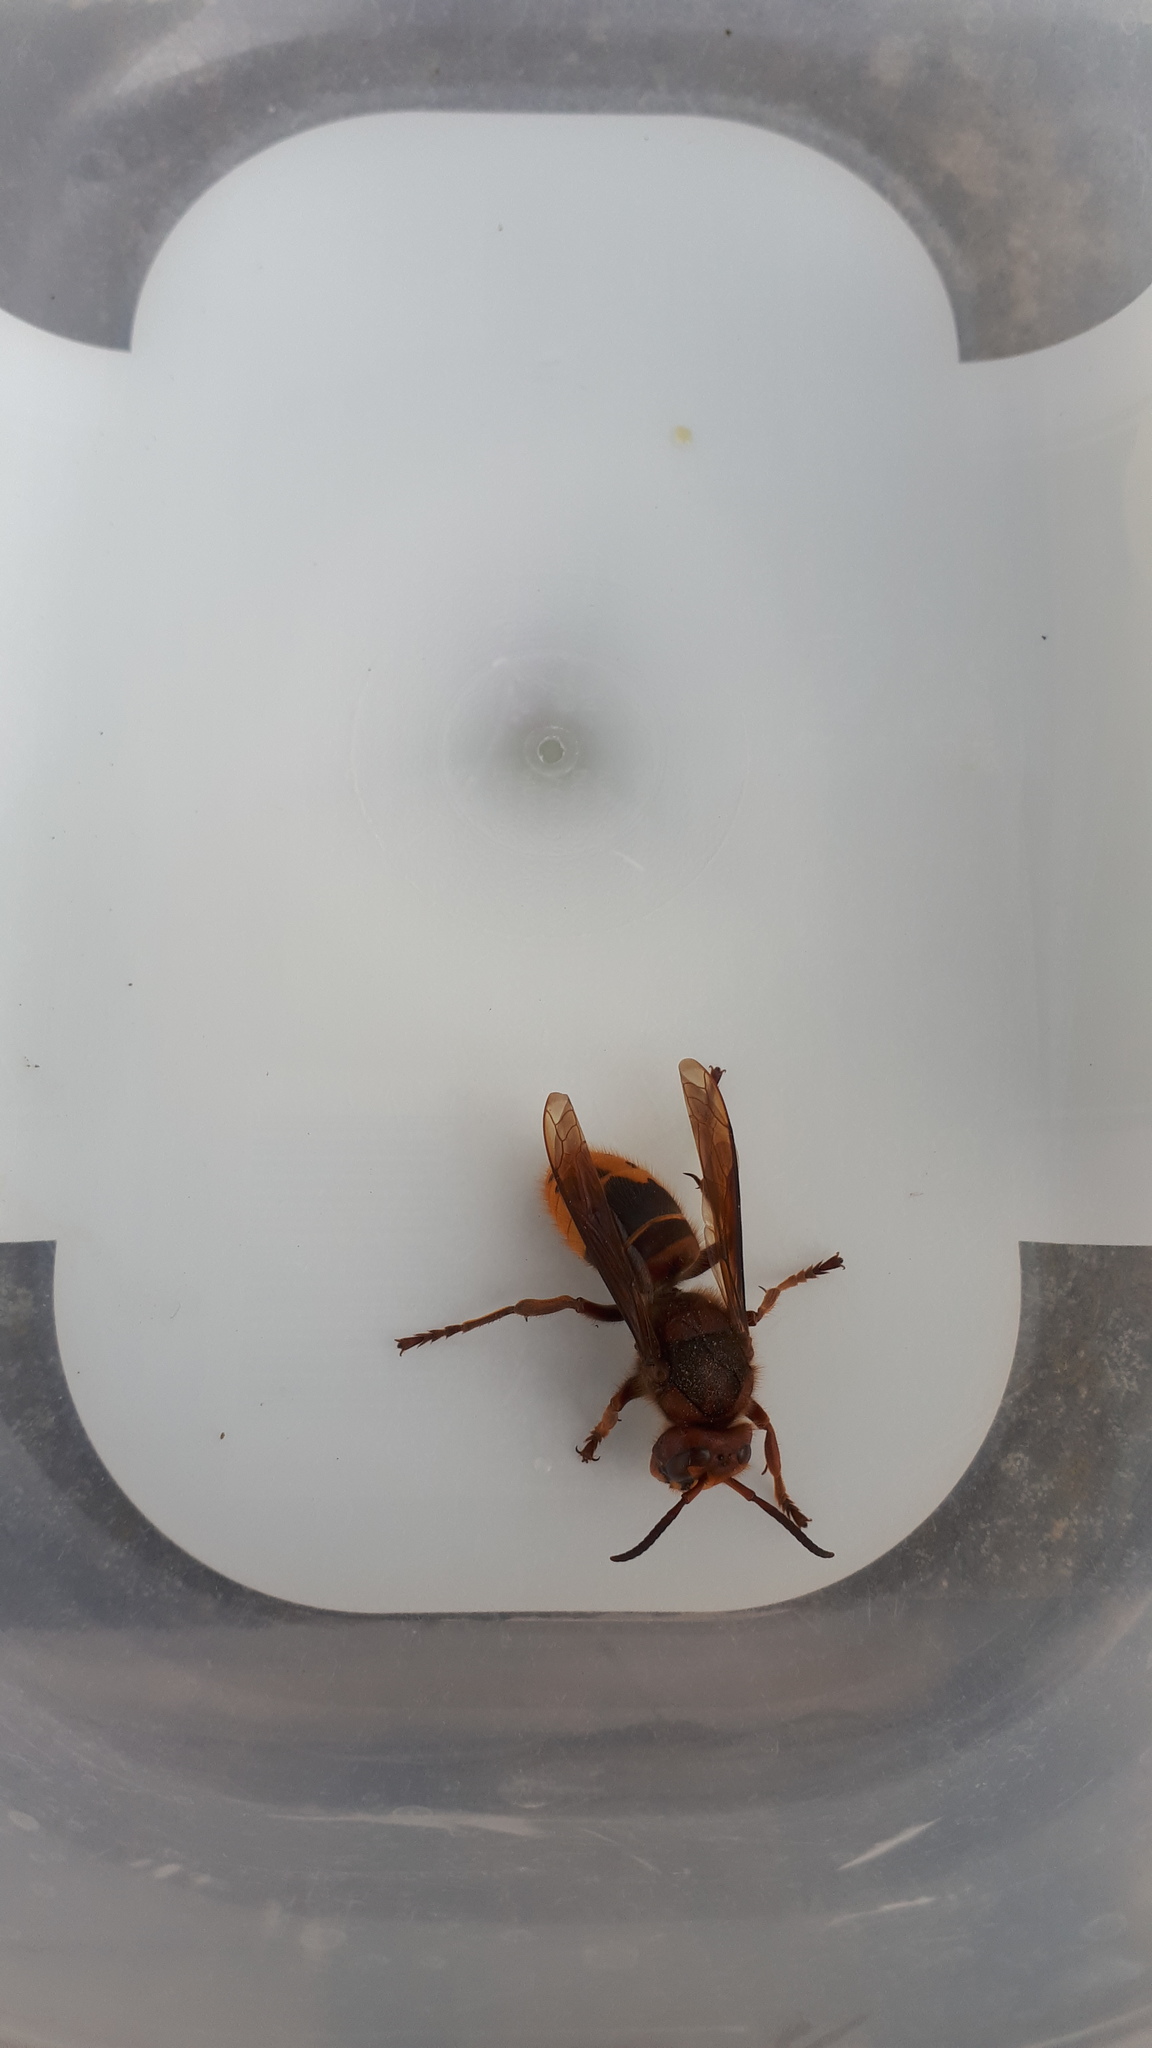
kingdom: Animalia
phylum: Arthropoda
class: Insecta
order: Hymenoptera
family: Vespidae
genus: Vespa
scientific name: Vespa crabro
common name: Hornet
